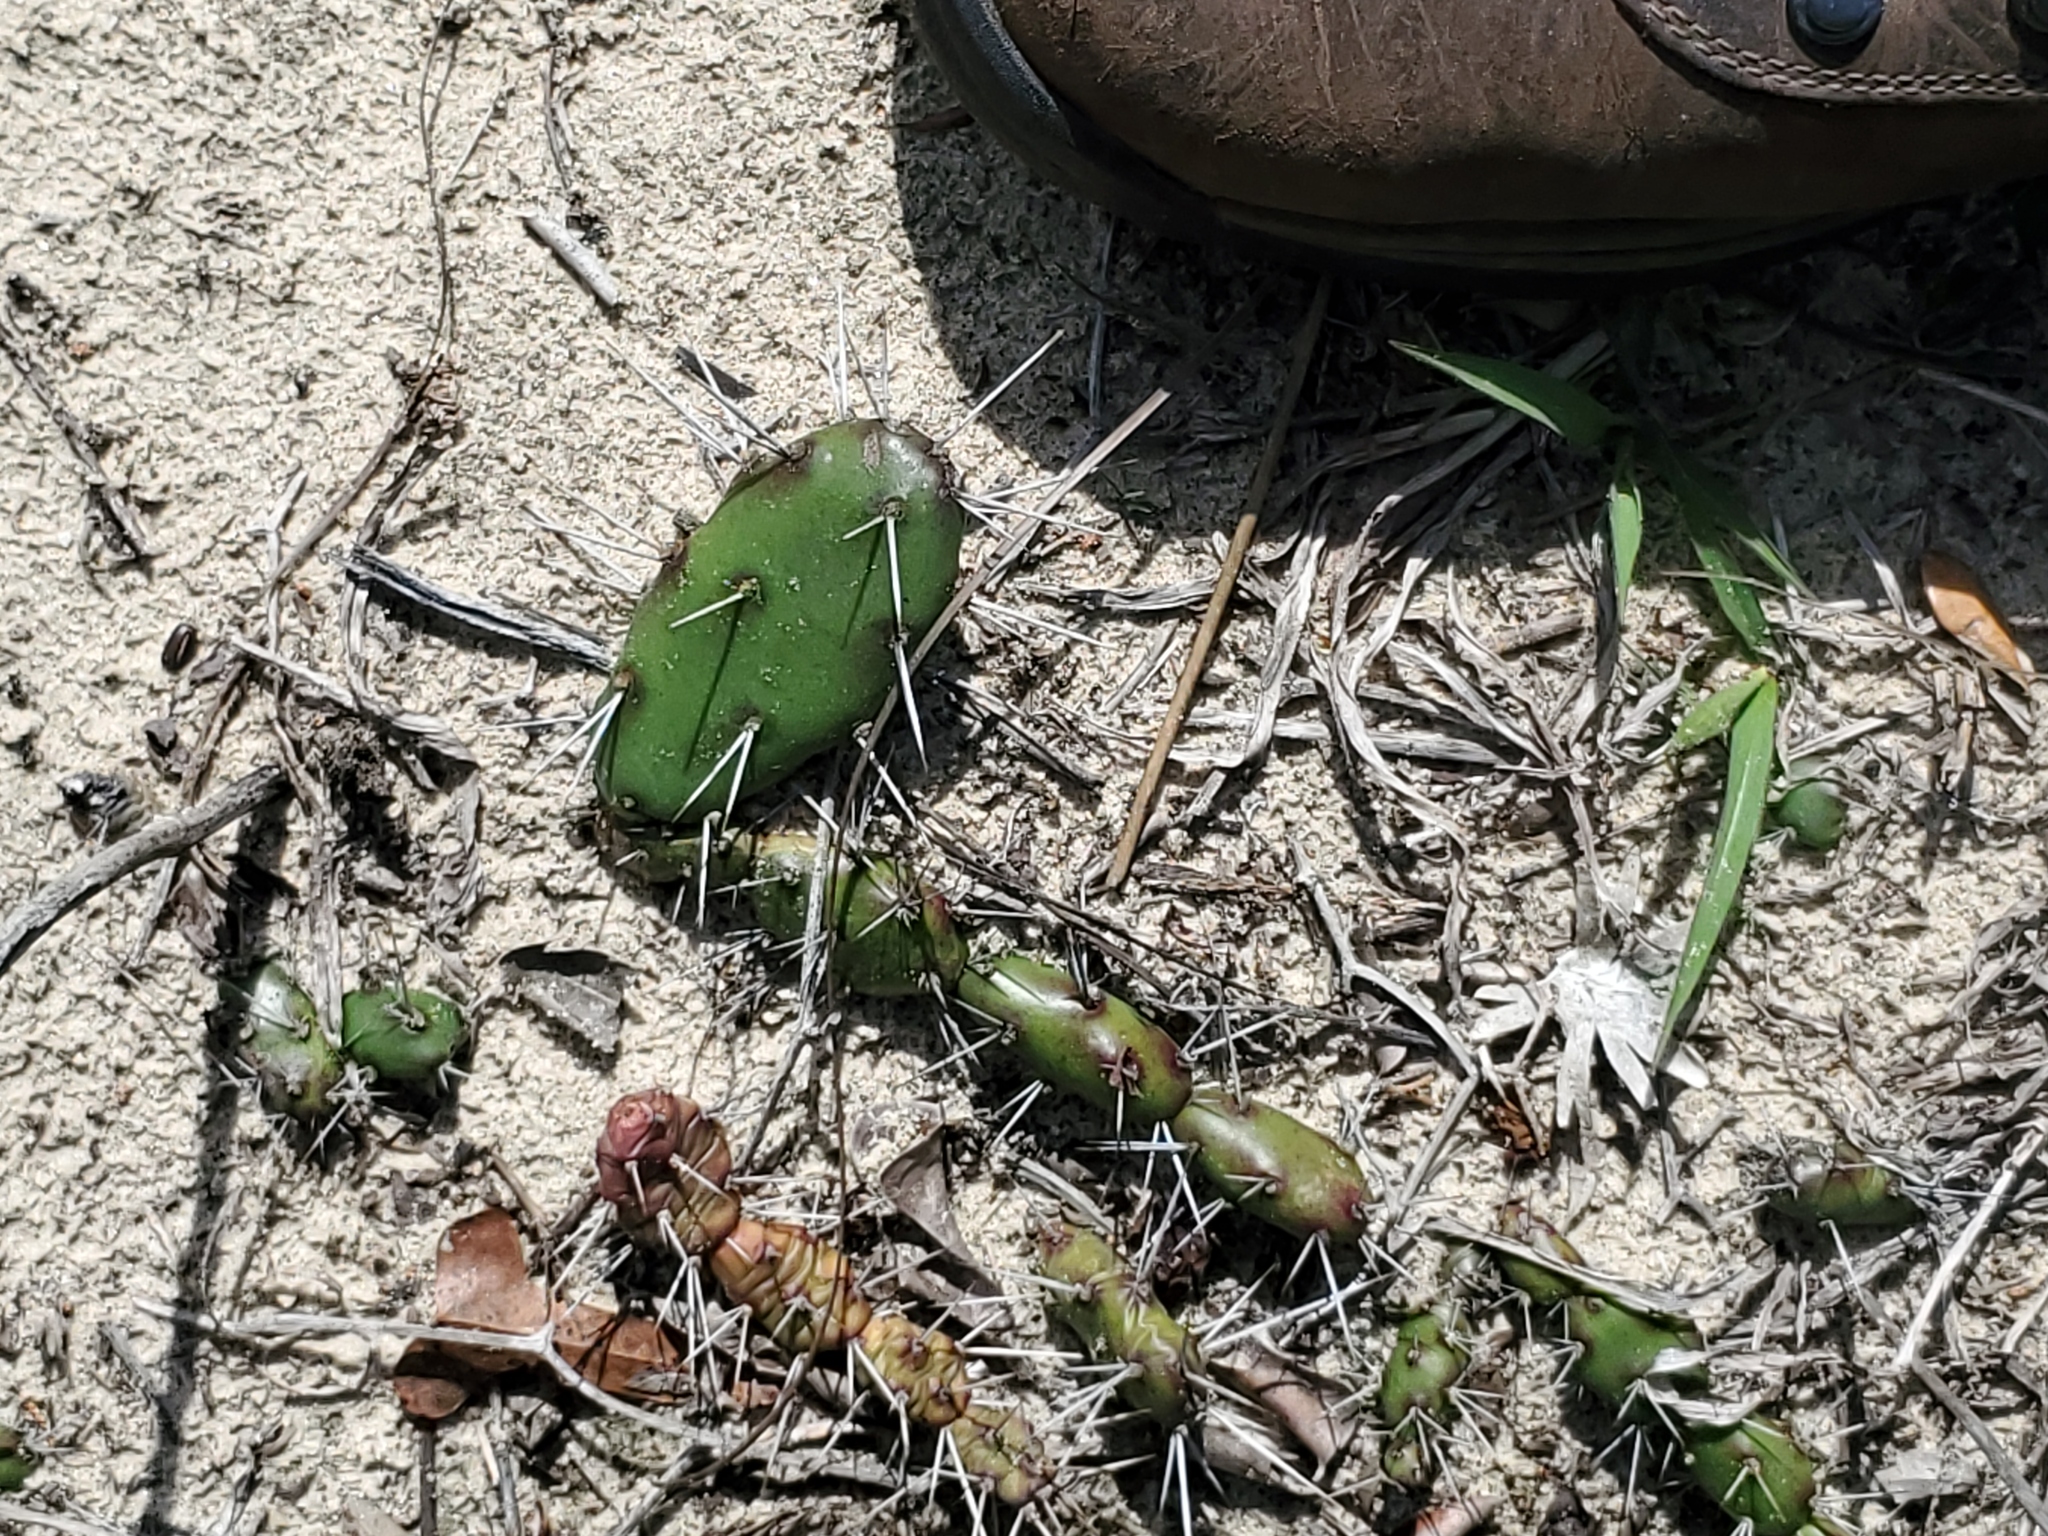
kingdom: Plantae
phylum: Tracheophyta
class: Magnoliopsida
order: Caryophyllales
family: Cactaceae
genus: Opuntia
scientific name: Opuntia drummondii
